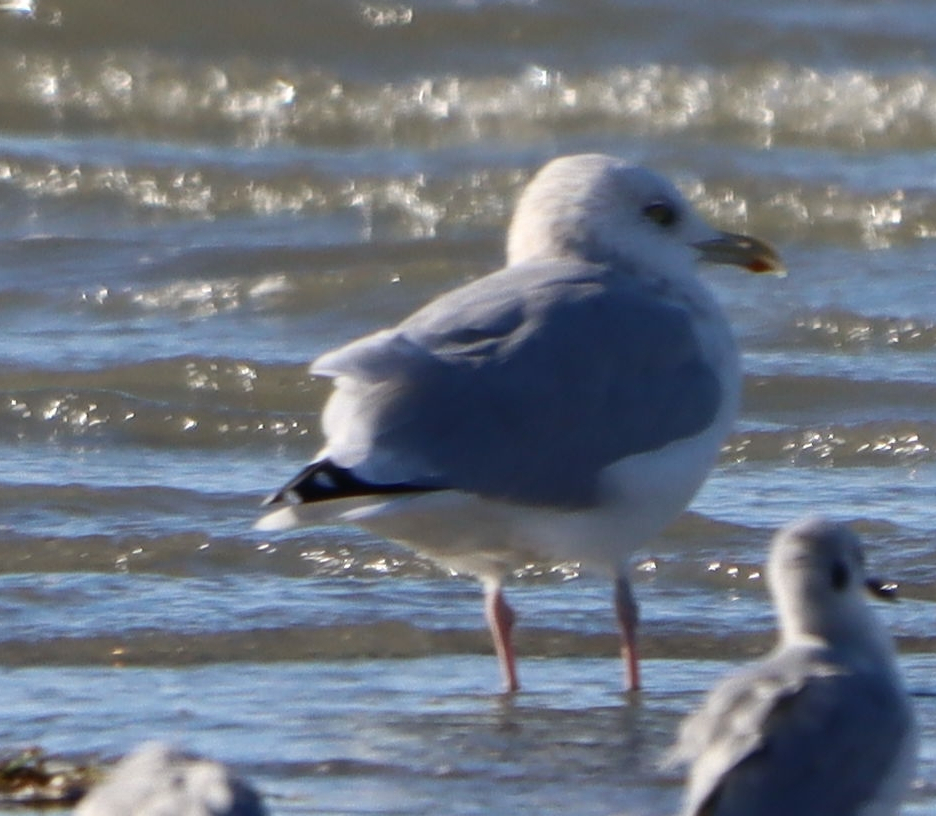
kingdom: Animalia
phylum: Chordata
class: Aves
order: Charadriiformes
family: Laridae
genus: Larus
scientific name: Larus argentatus
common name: Herring gull
